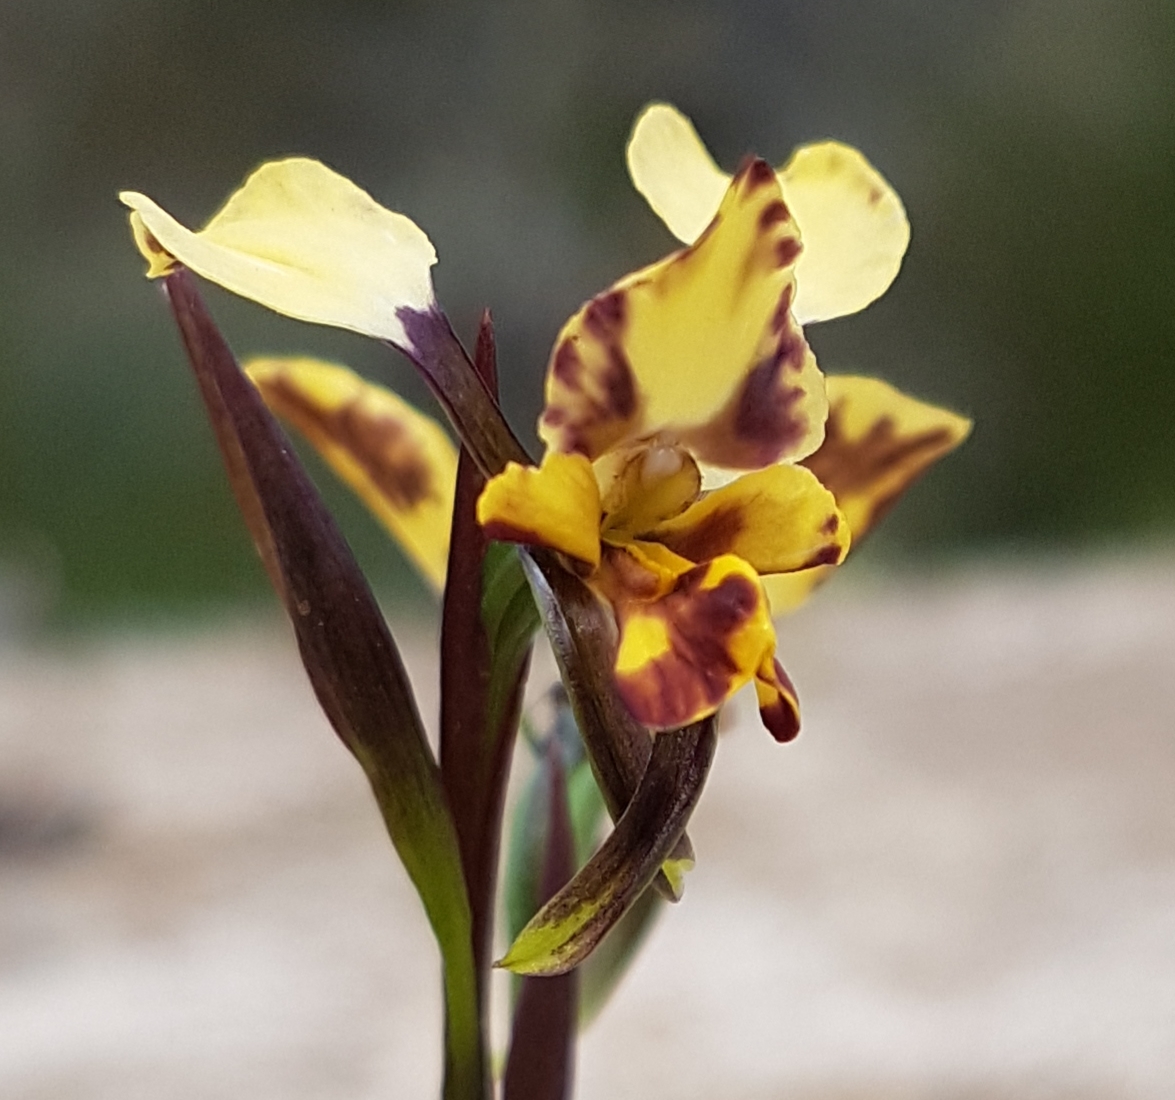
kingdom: Plantae
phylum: Tracheophyta
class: Liliopsida
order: Asparagales
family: Orchidaceae
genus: Diuris
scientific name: Diuris pardina
